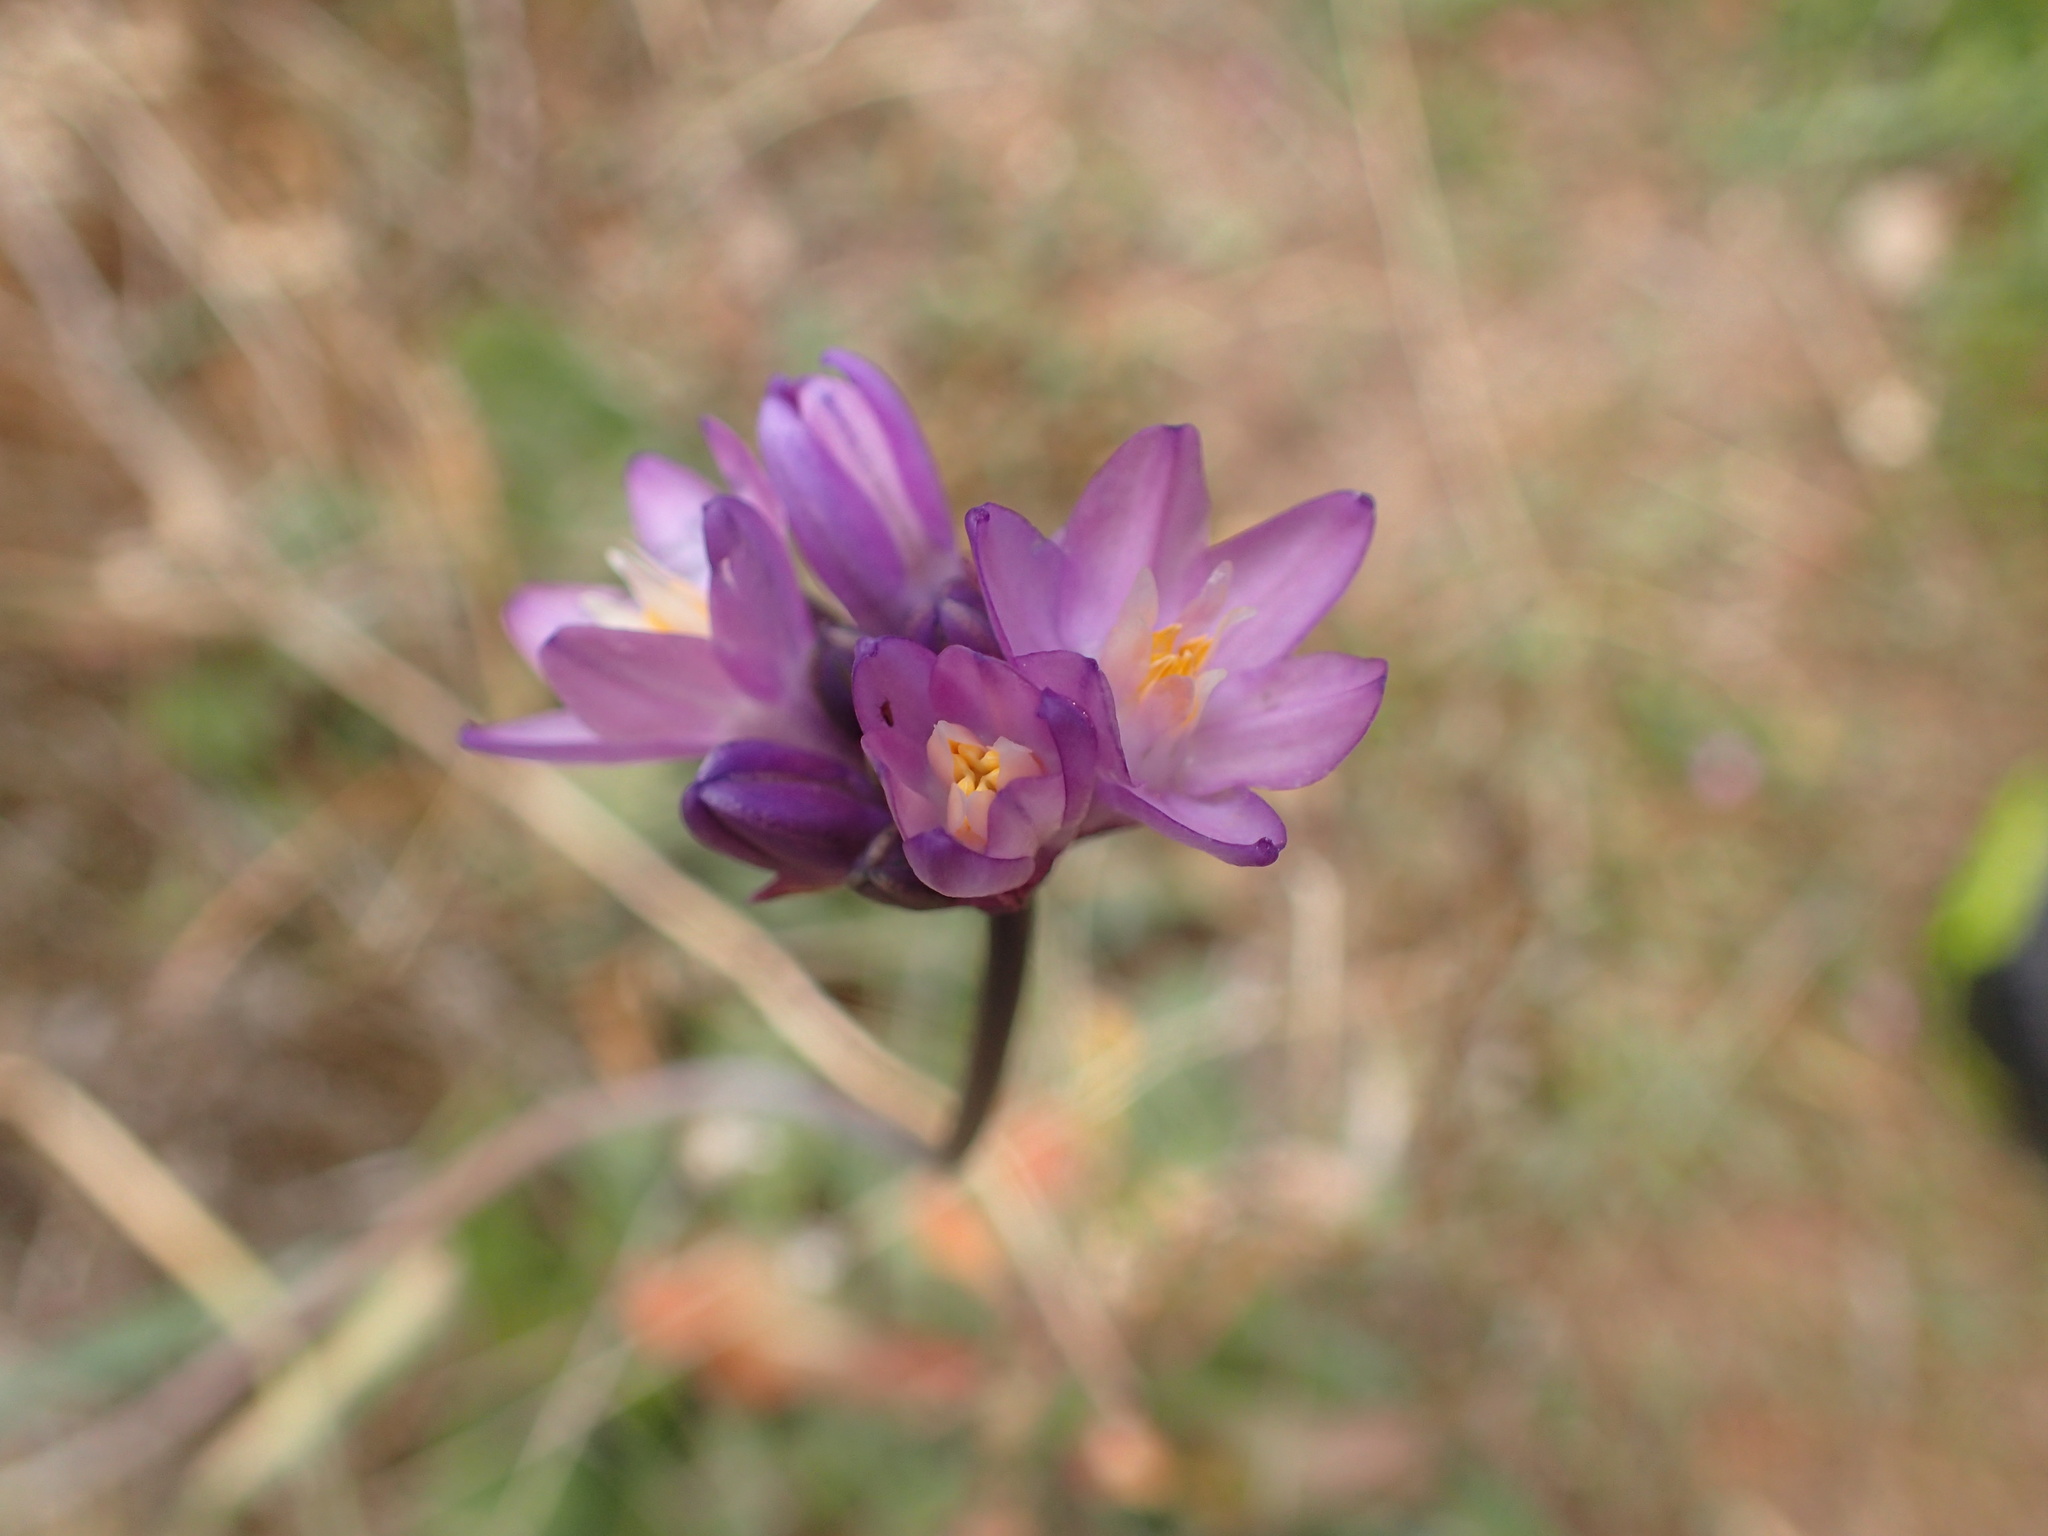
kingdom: Plantae
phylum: Tracheophyta
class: Liliopsida
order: Asparagales
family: Asparagaceae
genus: Dipterostemon
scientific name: Dipterostemon capitatus
